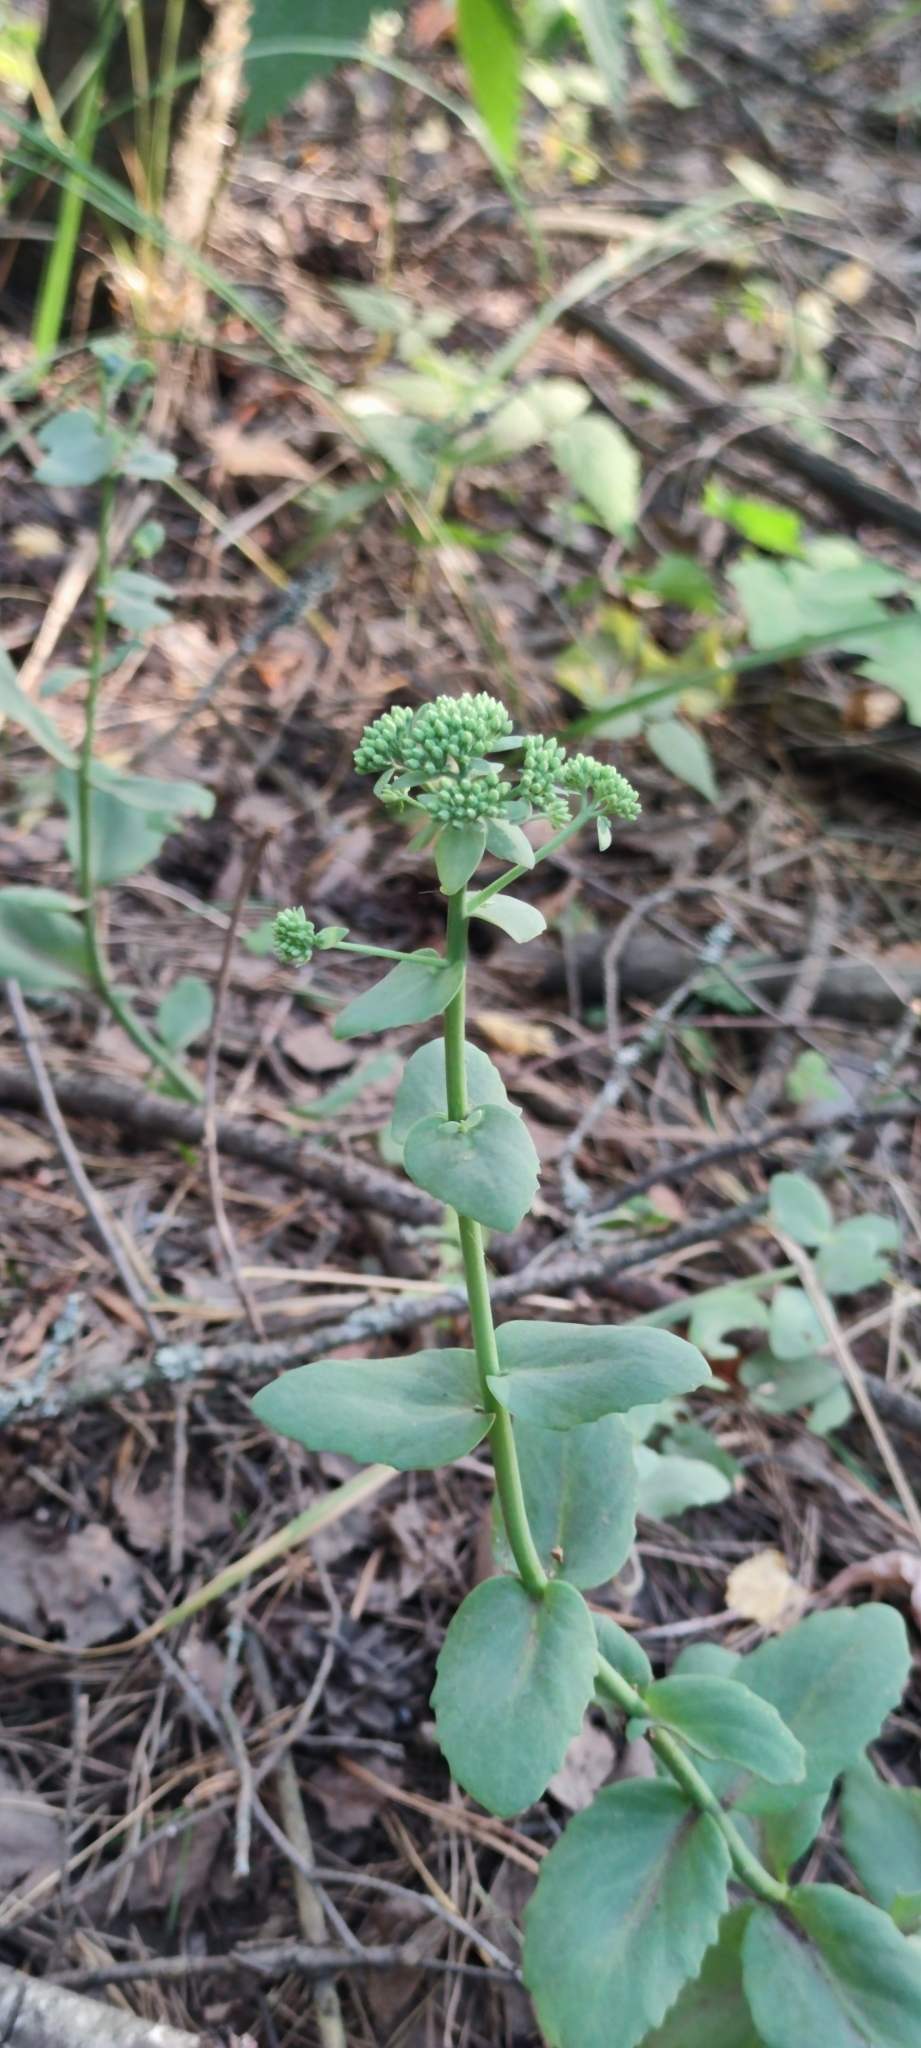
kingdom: Plantae
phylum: Tracheophyta
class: Magnoliopsida
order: Saxifragales
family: Crassulaceae
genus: Hylotelephium
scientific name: Hylotelephium maximum
